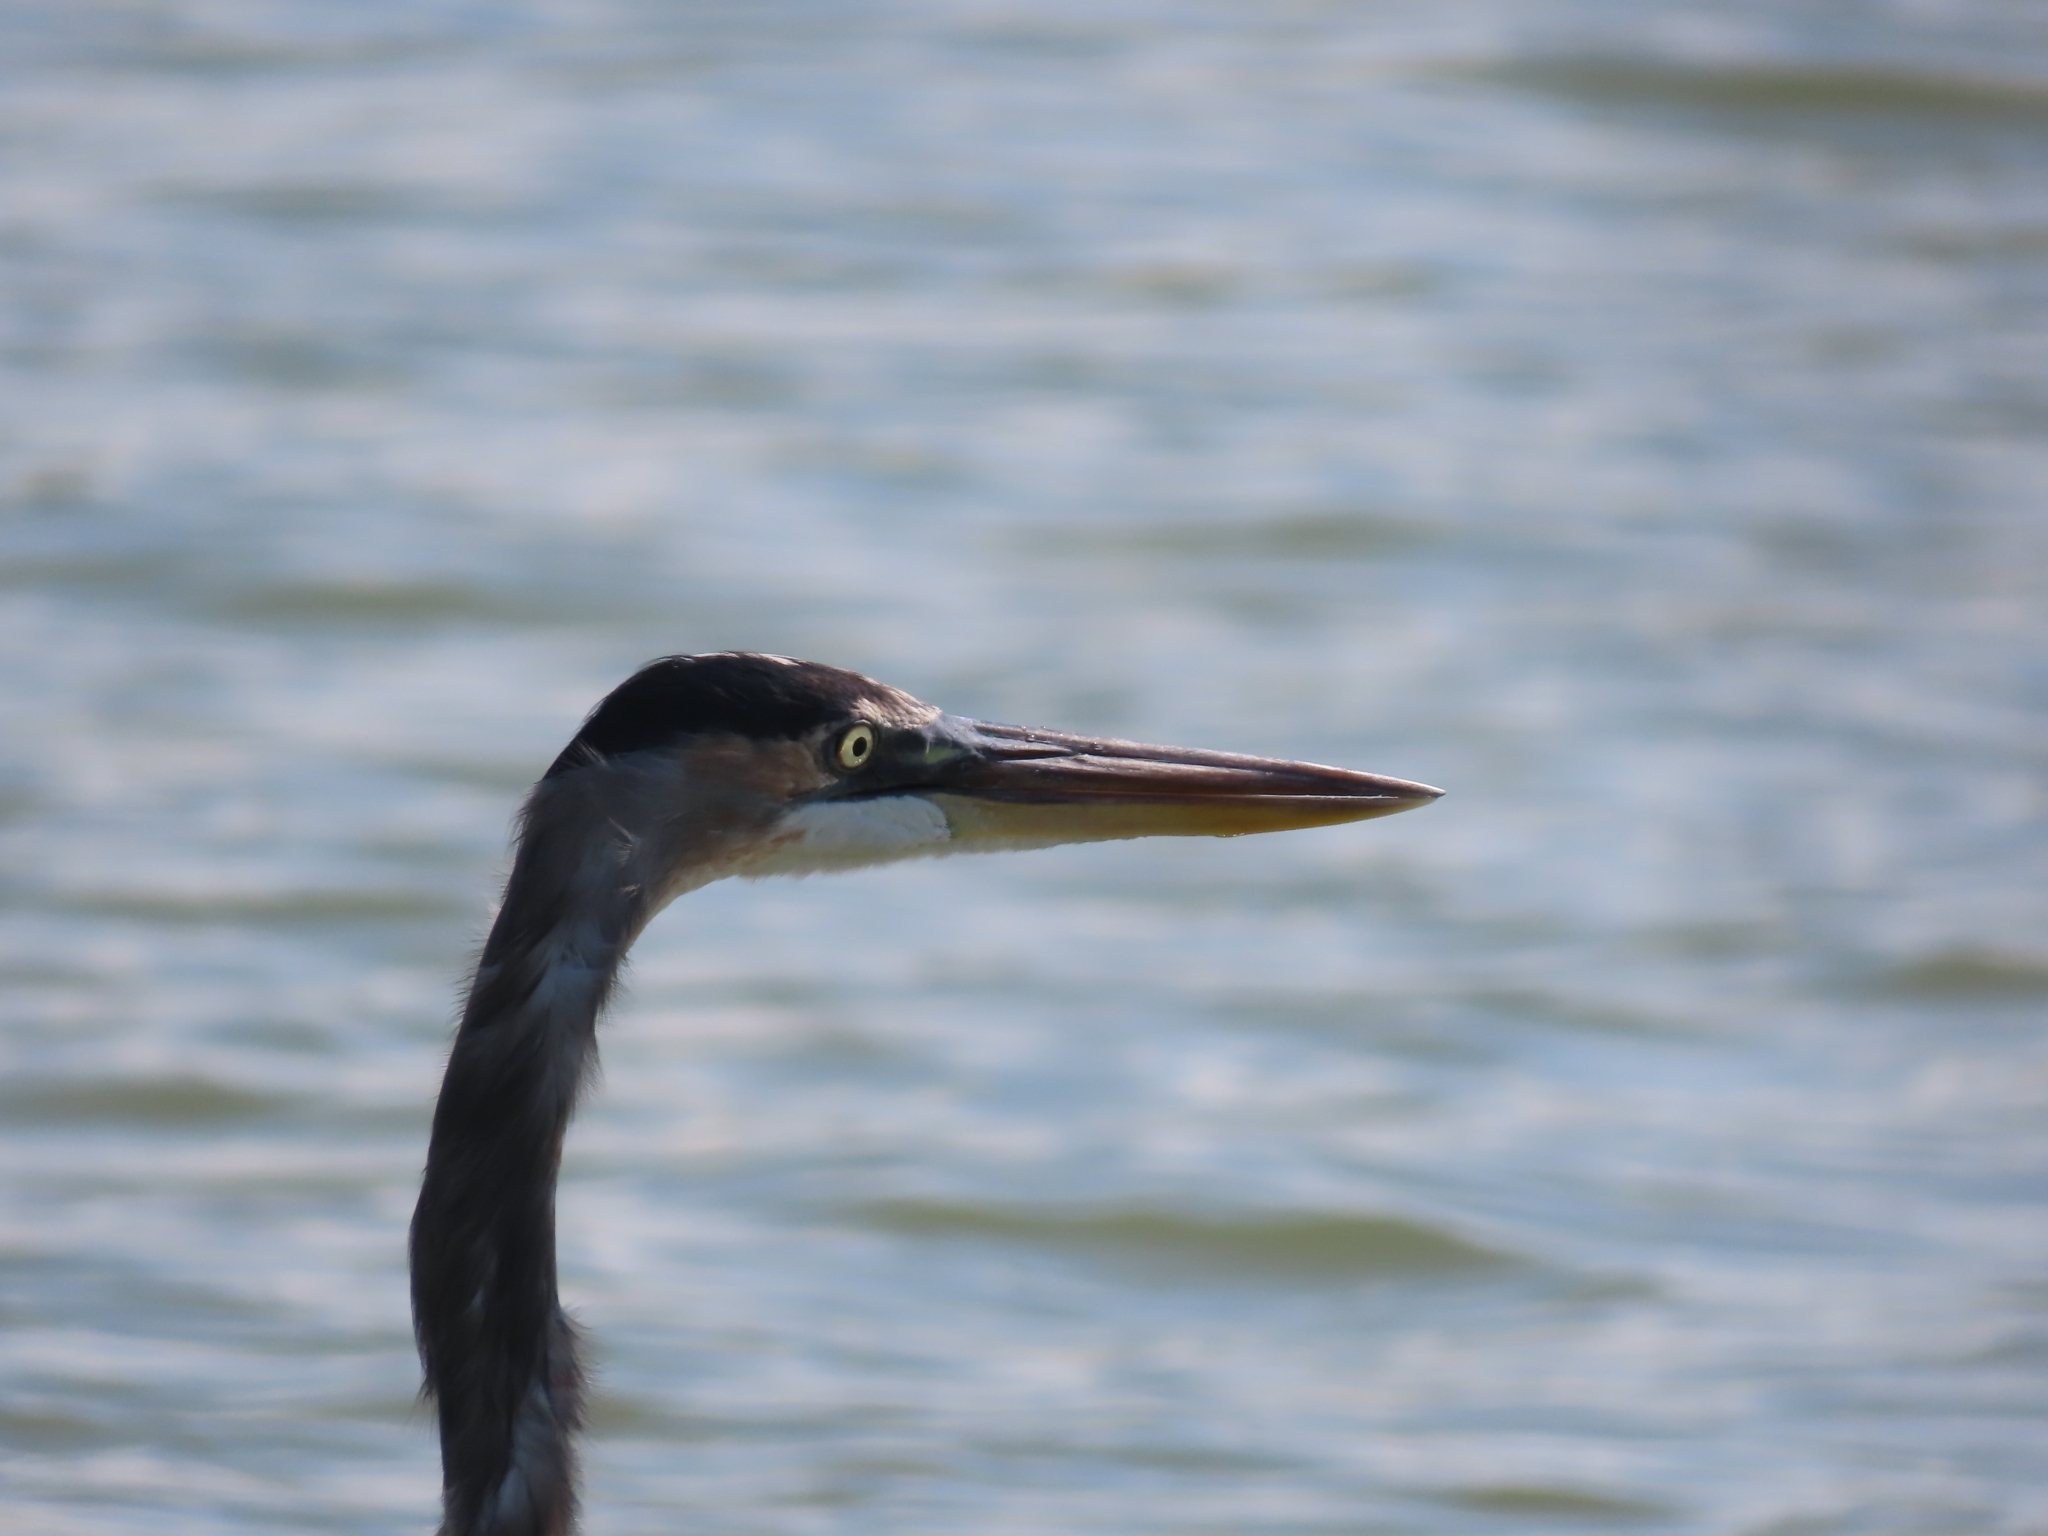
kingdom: Animalia
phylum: Chordata
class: Aves
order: Pelecaniformes
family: Ardeidae
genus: Ardea
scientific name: Ardea herodias
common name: Great blue heron
